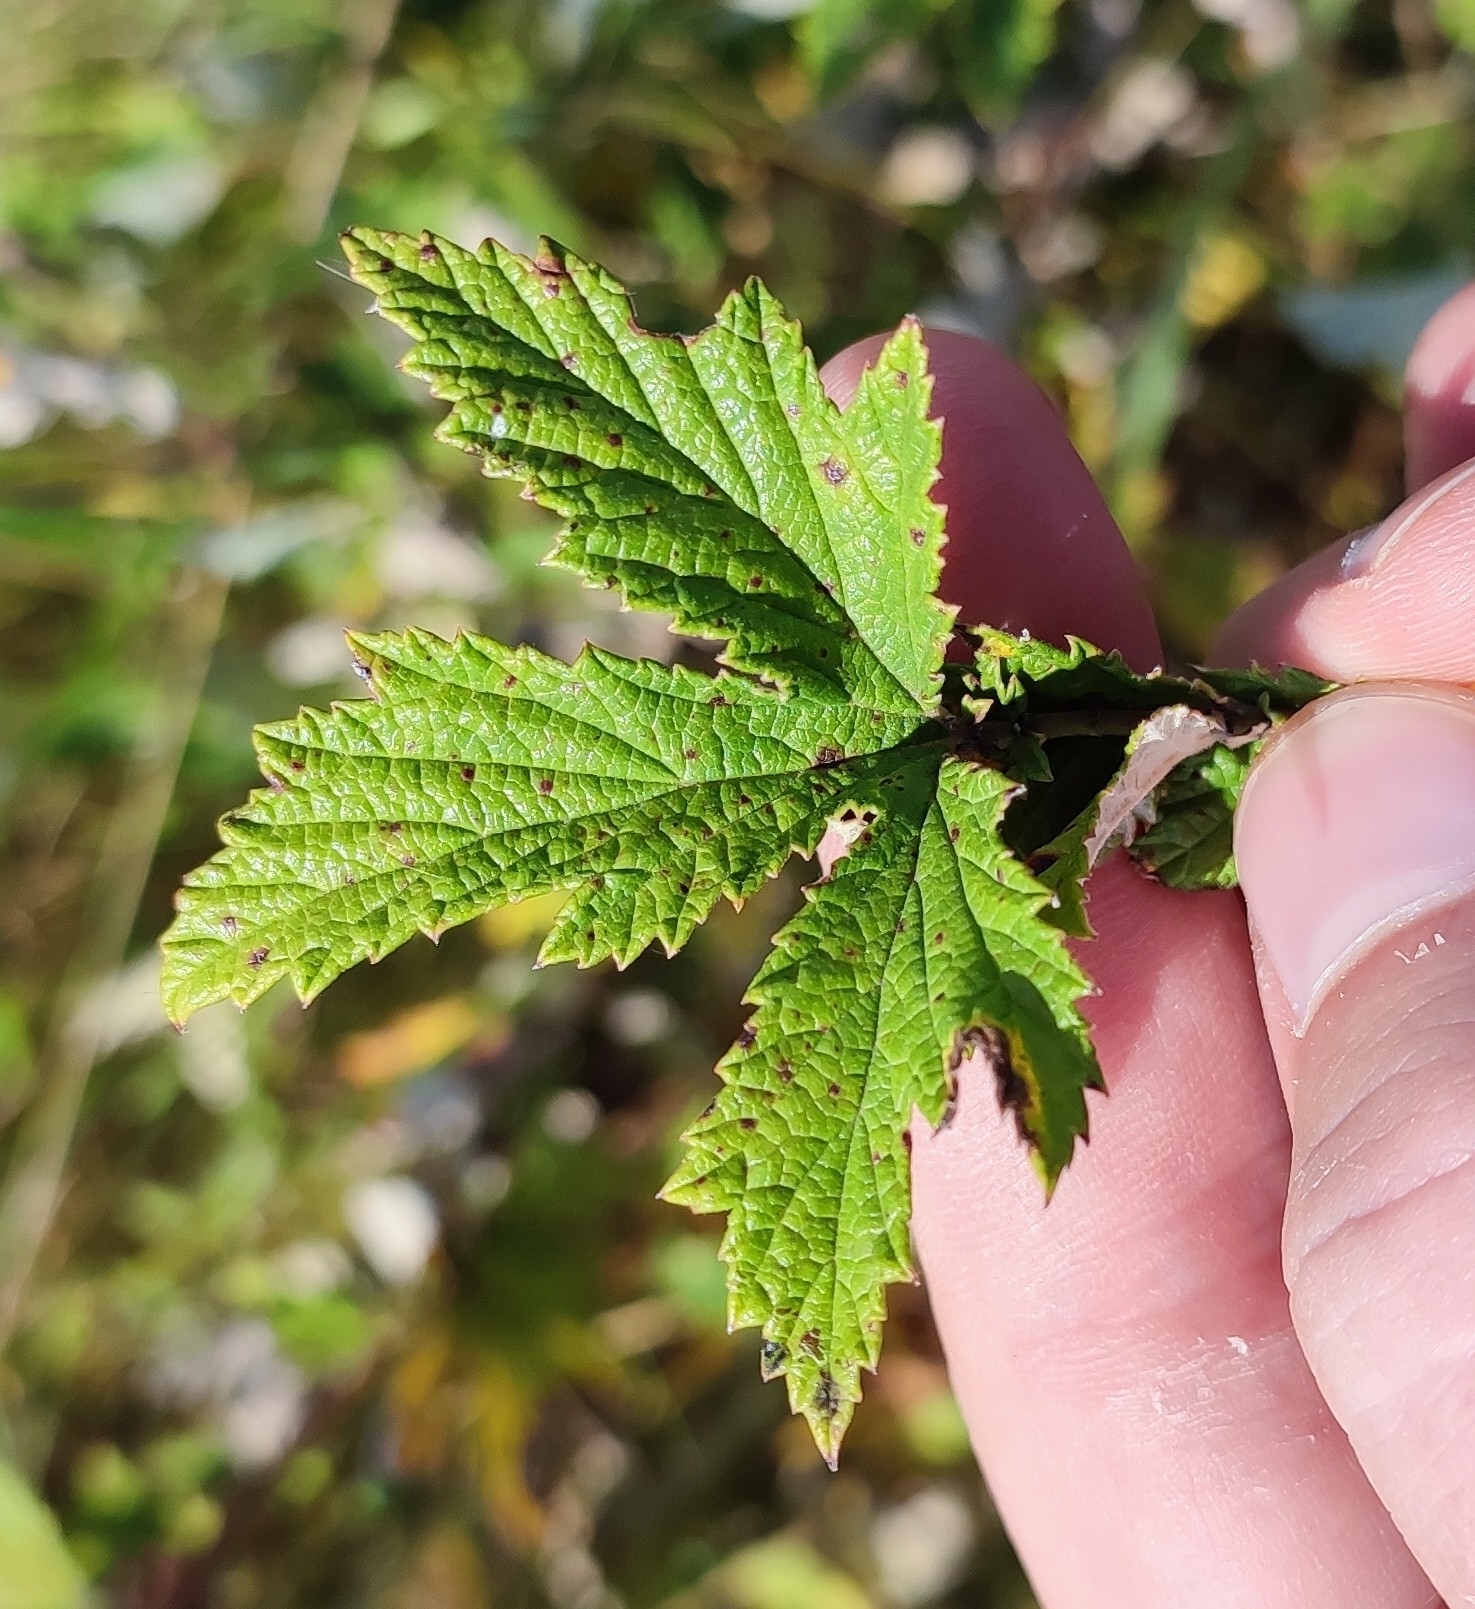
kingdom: Plantae
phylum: Tracheophyta
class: Magnoliopsida
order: Rosales
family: Rosaceae
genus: Filipendula
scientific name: Filipendula ulmaria
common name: Meadowsweet
